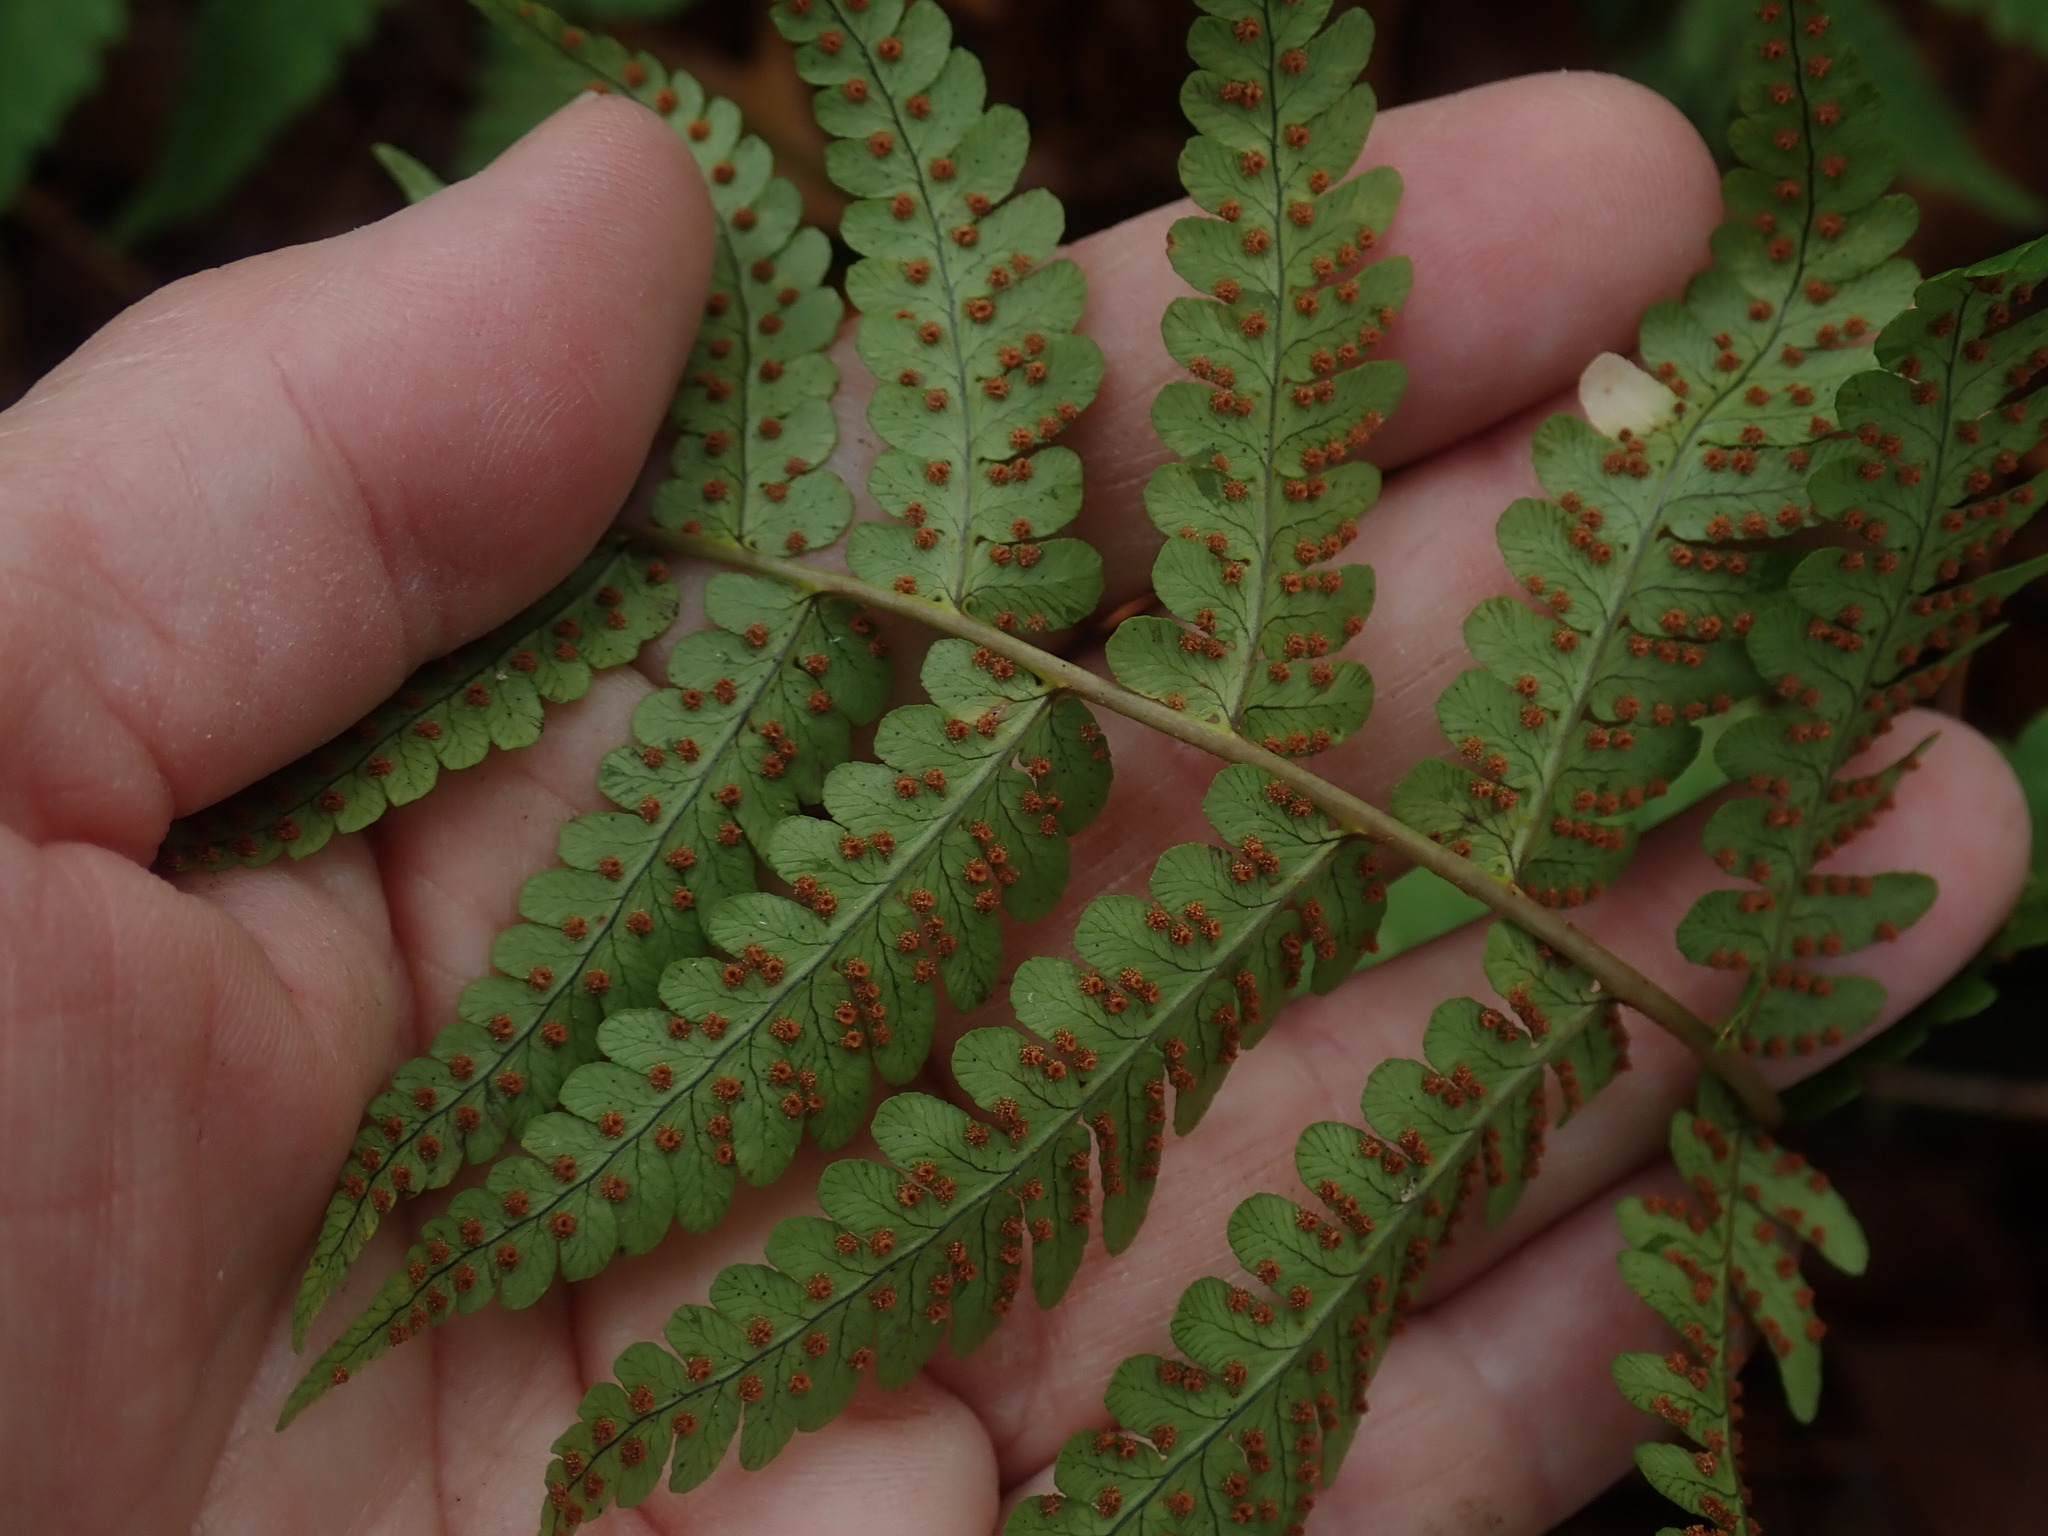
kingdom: Plantae
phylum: Tracheophyta
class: Polypodiopsida
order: Polypodiales
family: Dryopteridaceae
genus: Dryopteris
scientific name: Dryopteris marginalis
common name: Marginal wood fern
